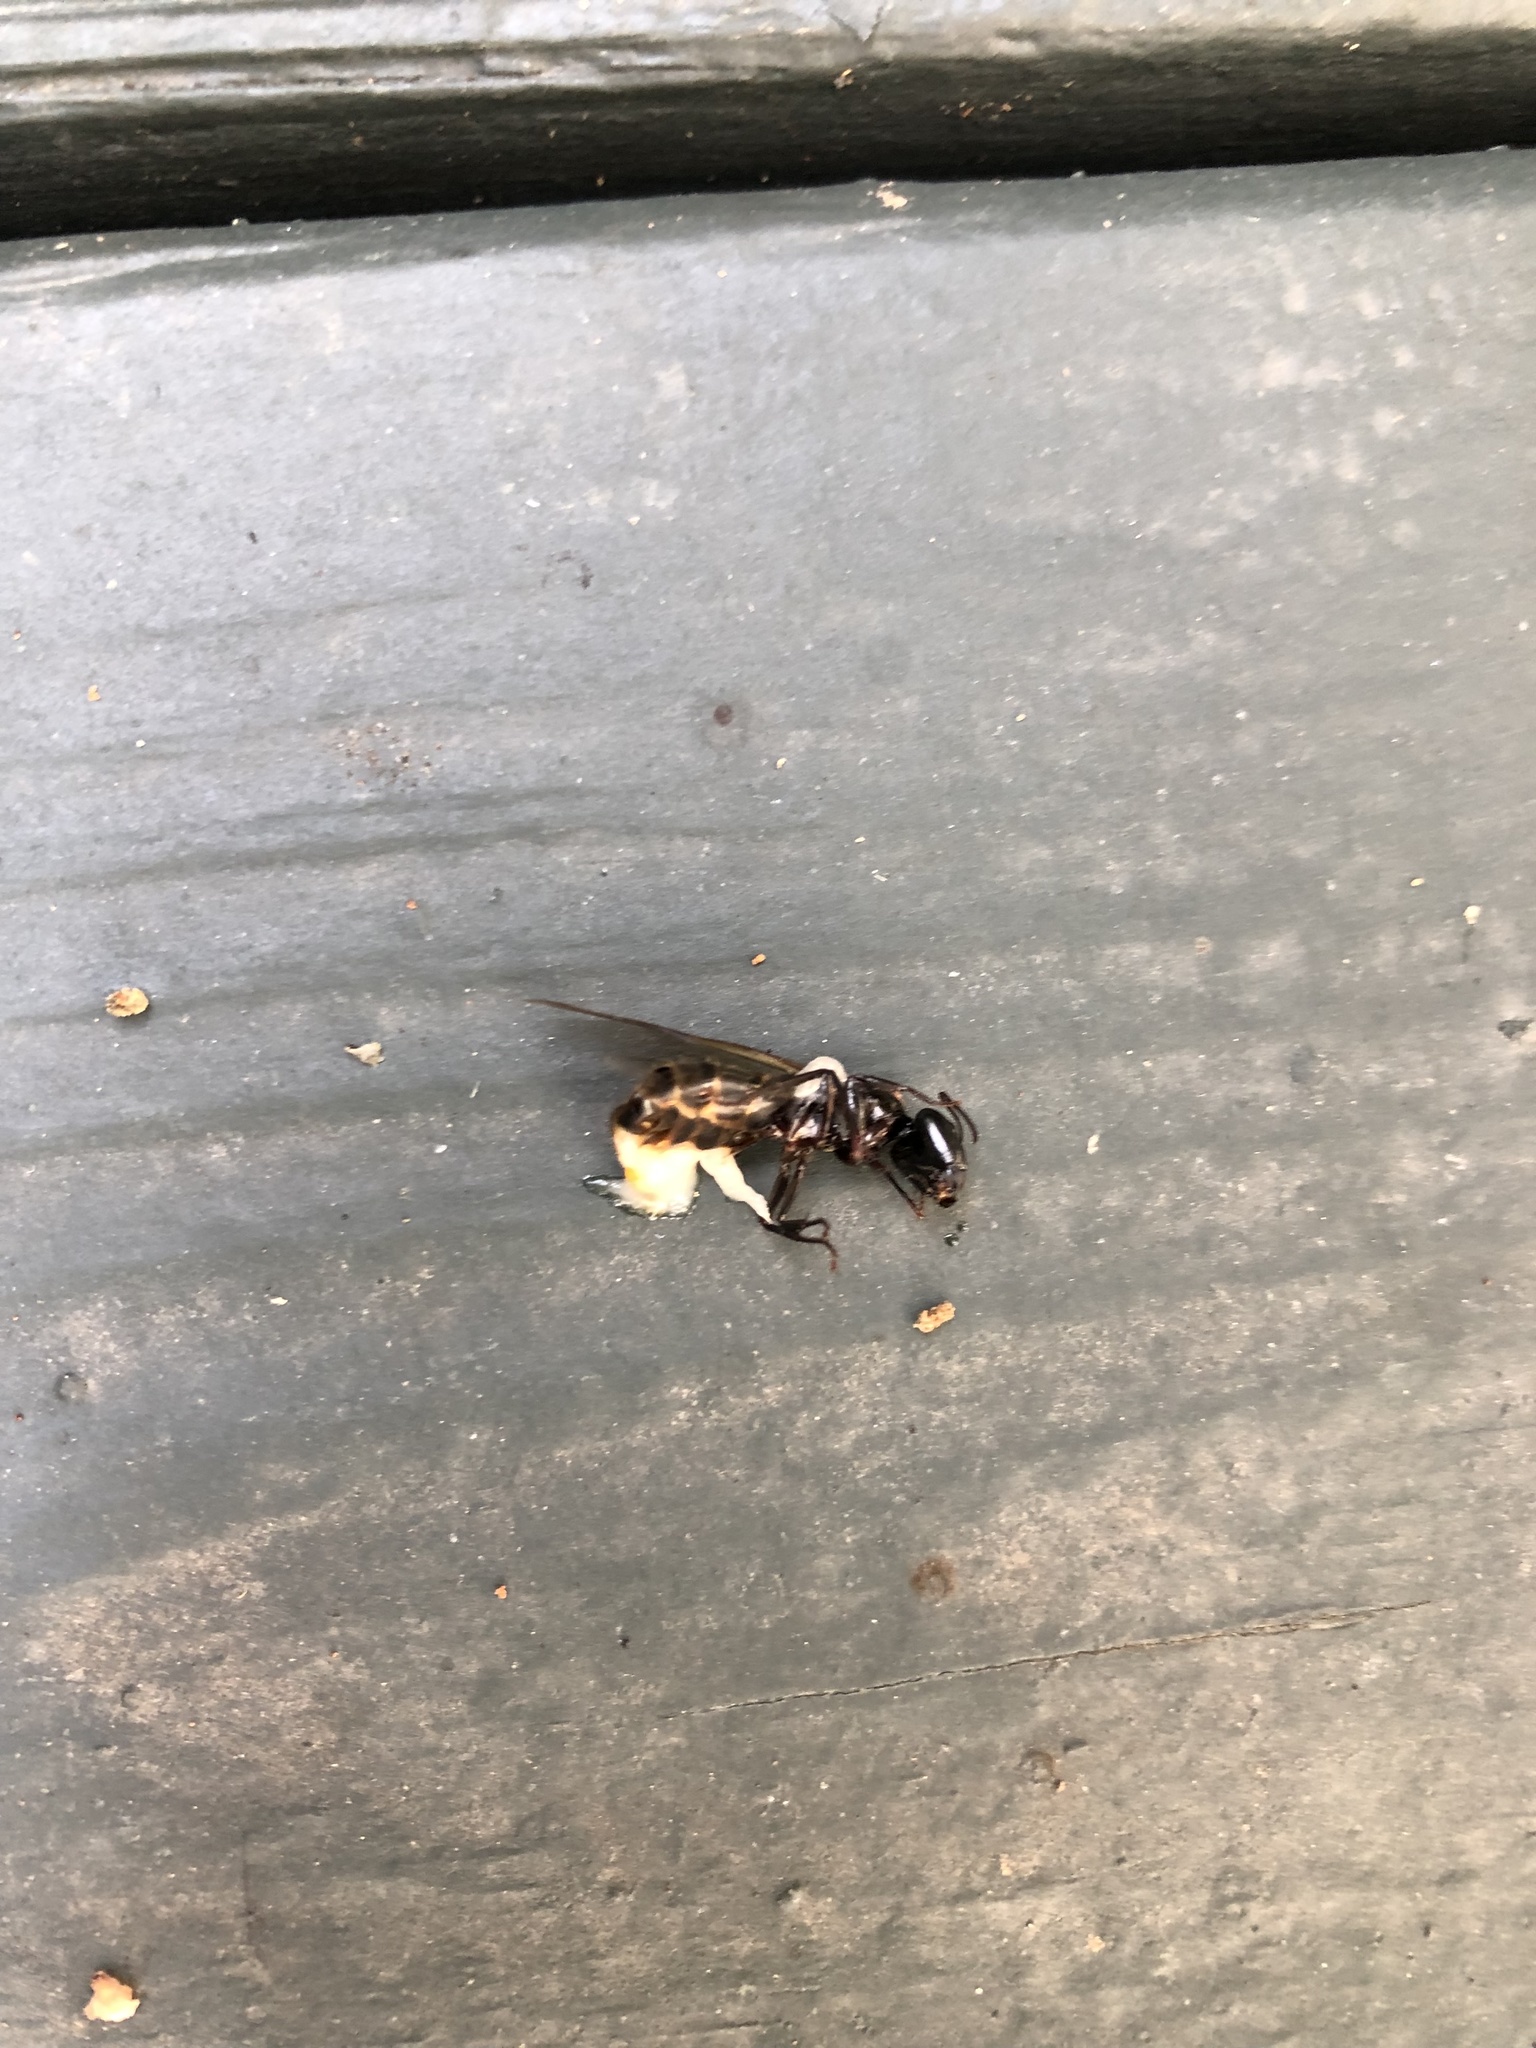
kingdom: Animalia
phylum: Arthropoda
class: Insecta
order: Hymenoptera
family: Formicidae
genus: Camponotus
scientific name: Camponotus pennsylvanicus
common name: Black carpenter ant
